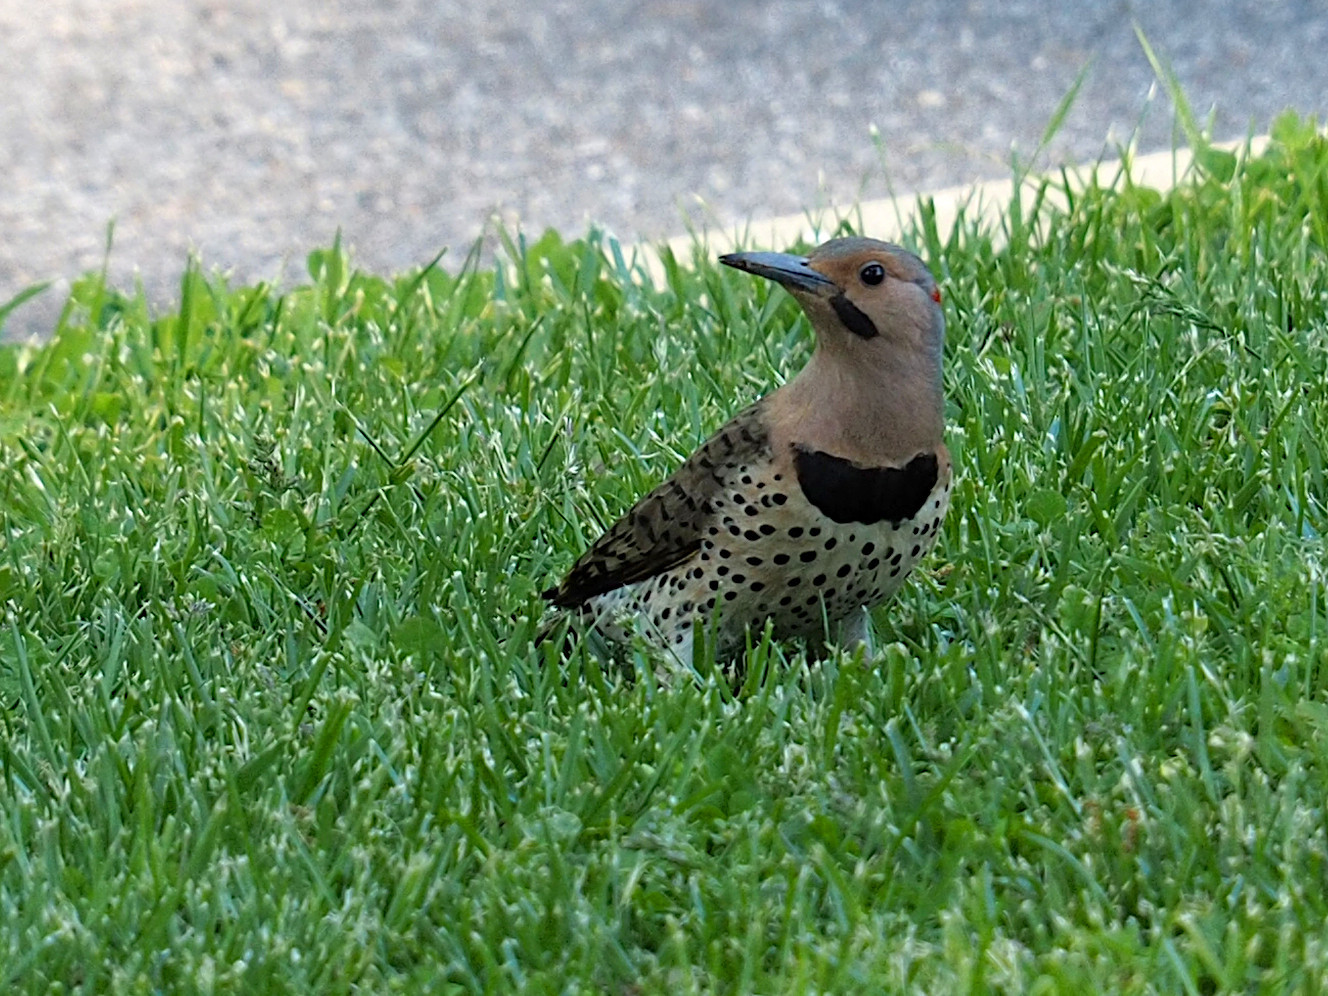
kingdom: Animalia
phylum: Chordata
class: Aves
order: Piciformes
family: Picidae
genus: Colaptes
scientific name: Colaptes auratus
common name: Northern flicker
